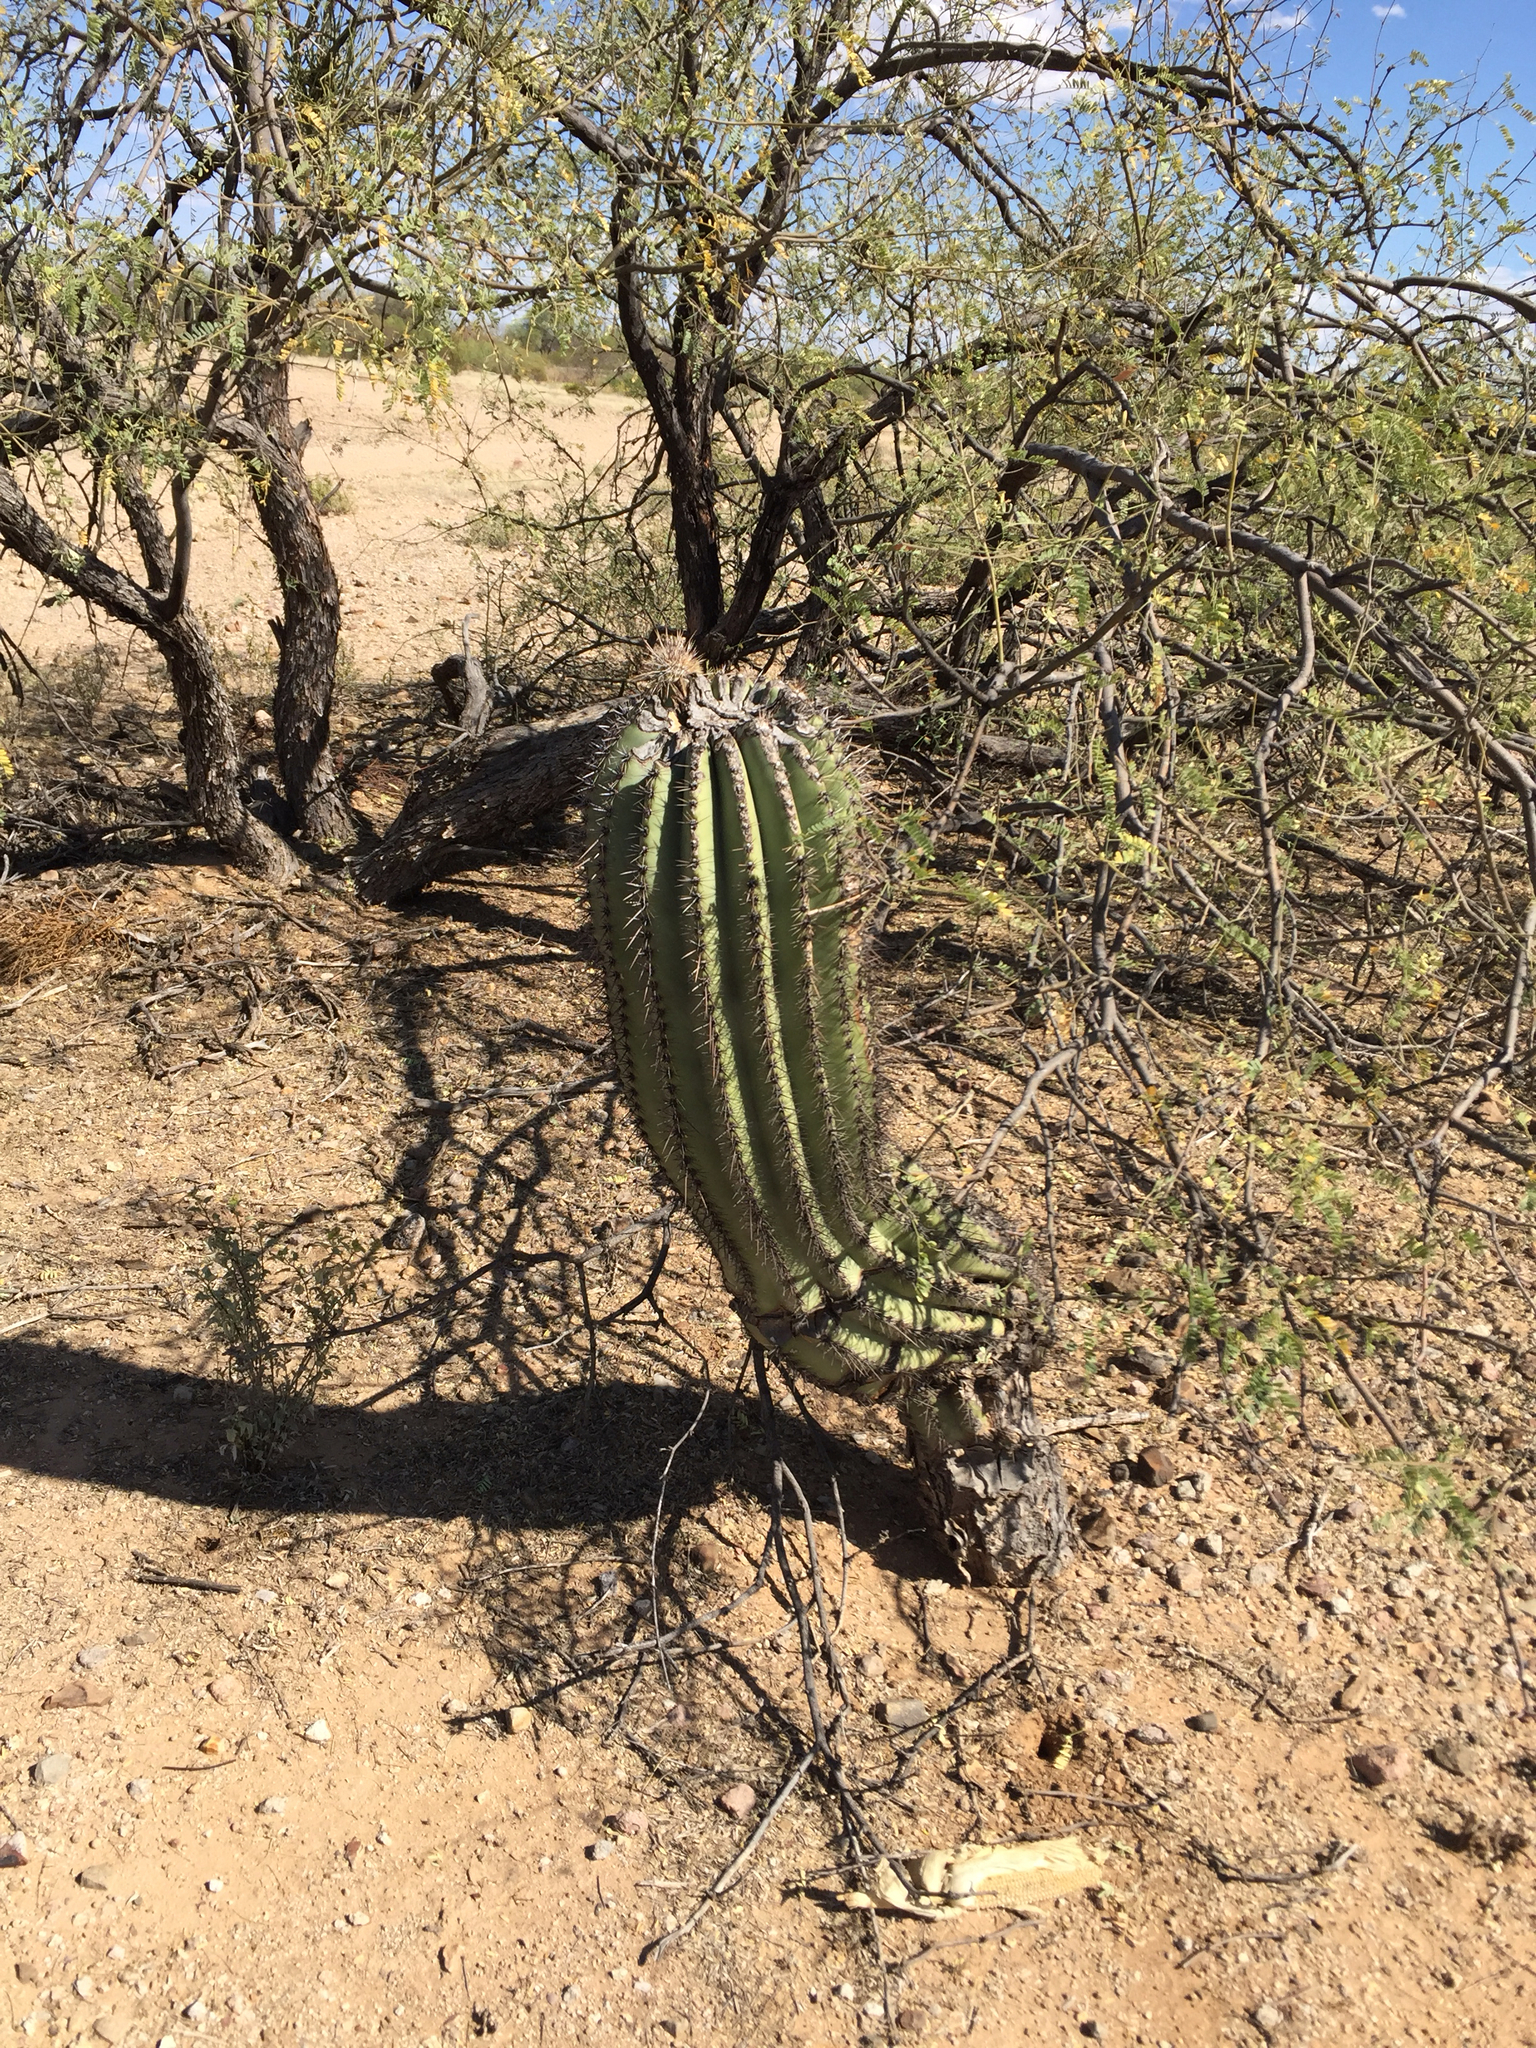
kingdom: Plantae
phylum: Tracheophyta
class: Magnoliopsida
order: Caryophyllales
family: Cactaceae
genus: Carnegiea
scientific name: Carnegiea gigantea
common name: Saguaro
